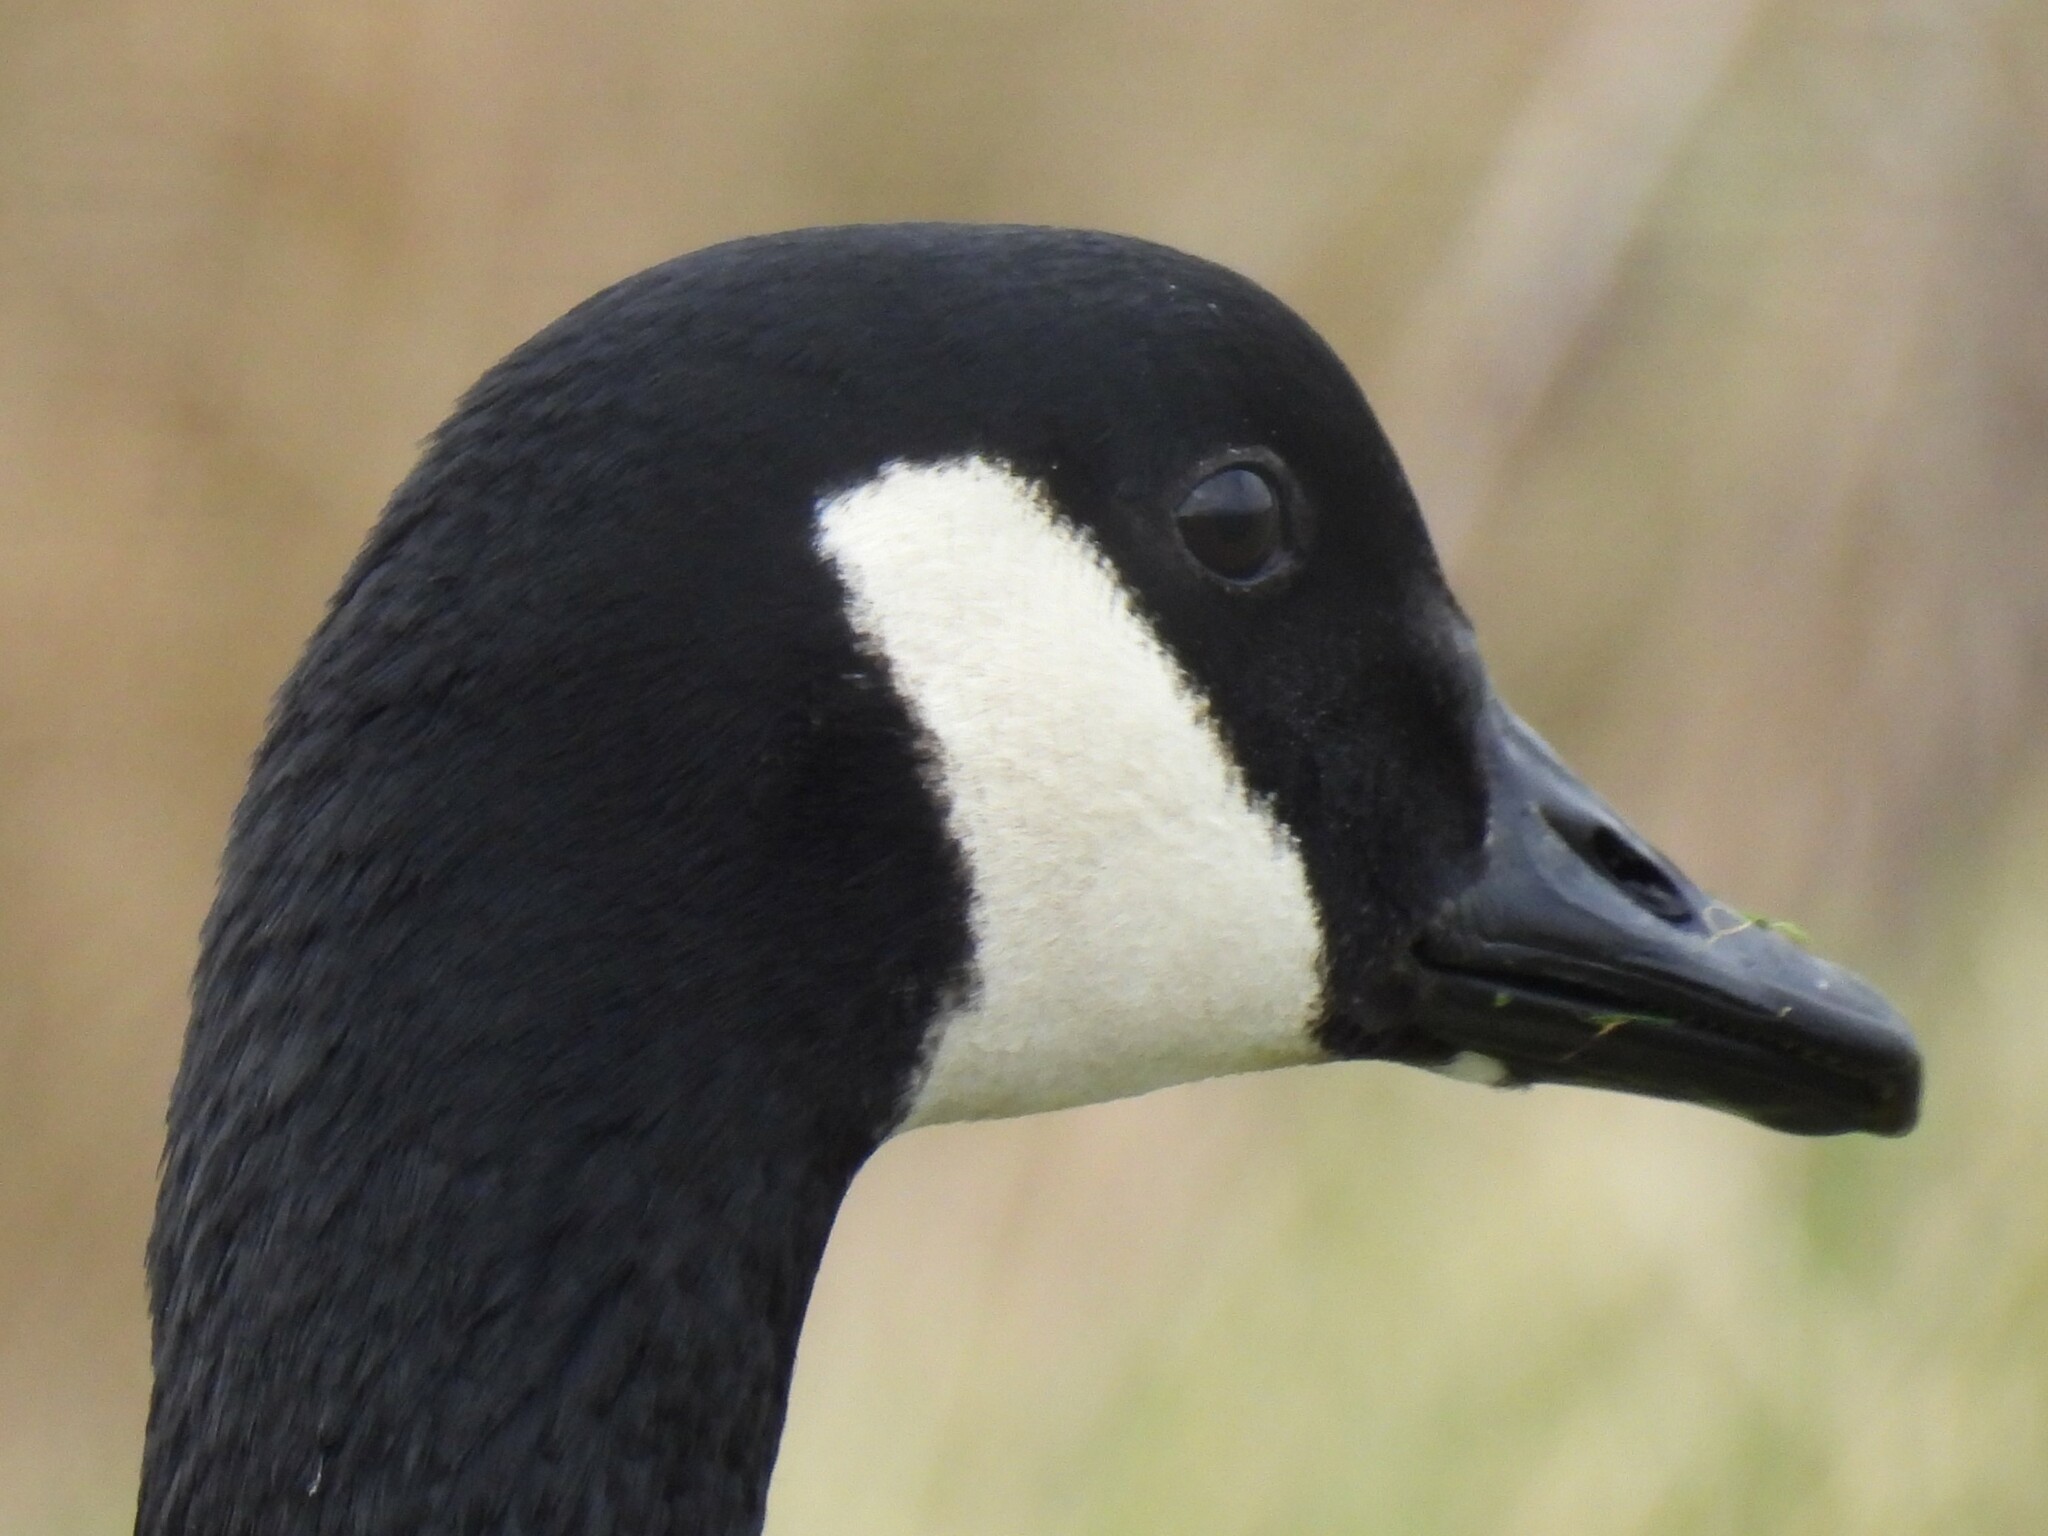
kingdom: Animalia
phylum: Chordata
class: Aves
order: Anseriformes
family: Anatidae
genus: Branta
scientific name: Branta canadensis
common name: Canada goose
